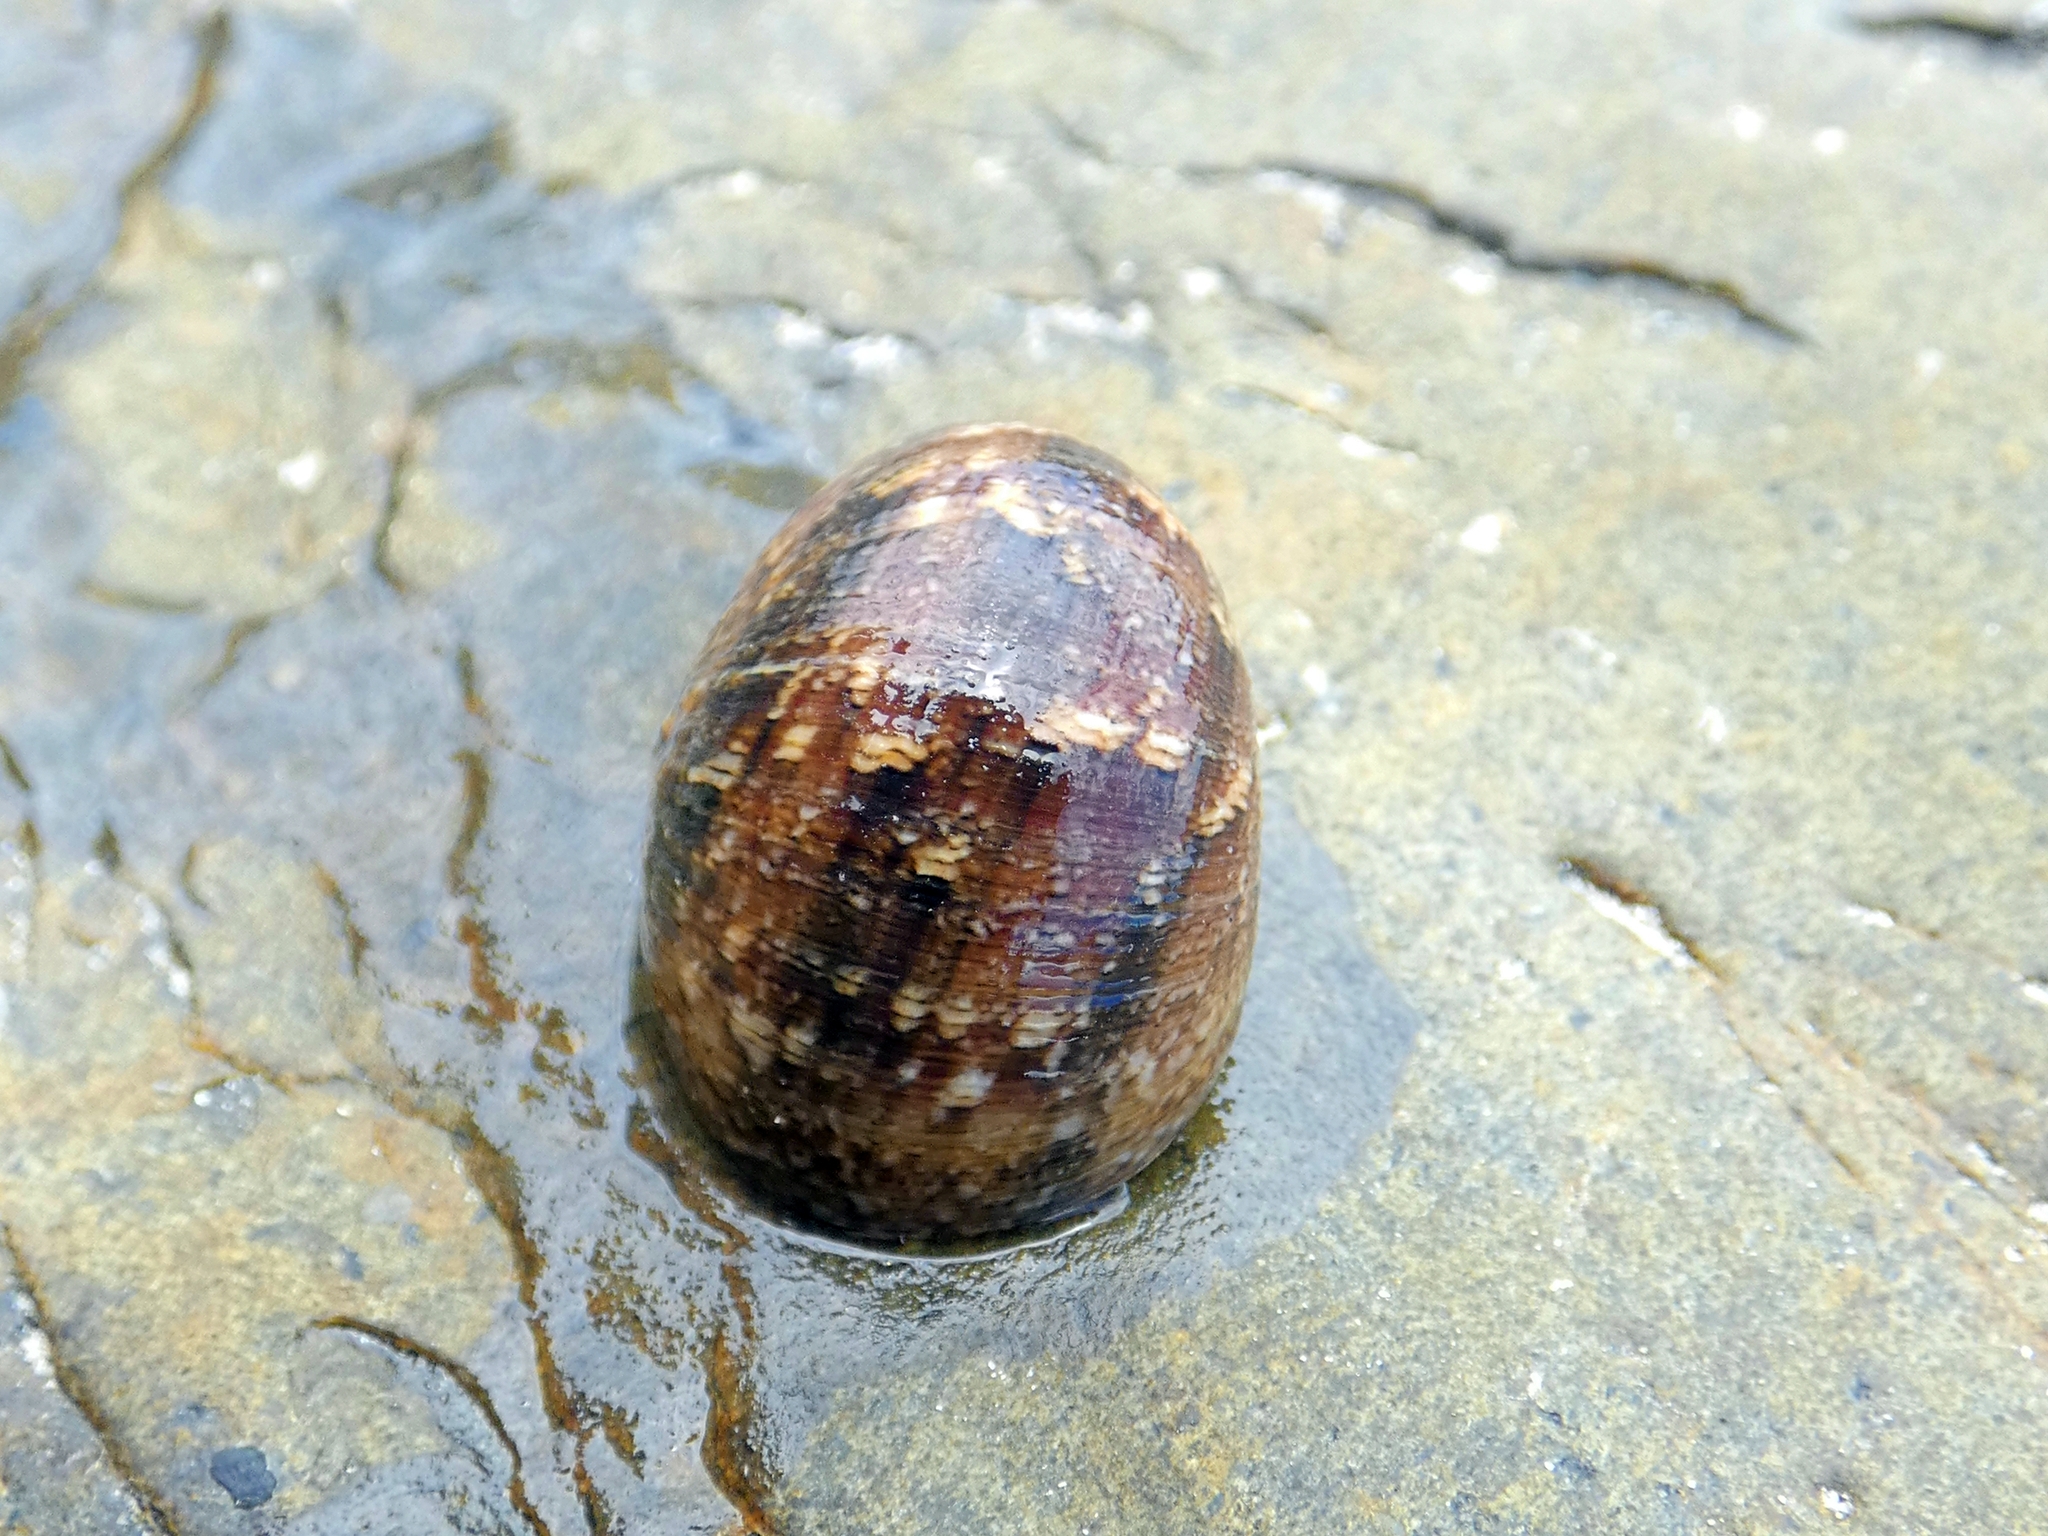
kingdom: Animalia
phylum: Mollusca
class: Gastropoda
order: Cycloneritida
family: Neritidae
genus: Nerita
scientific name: Nerita polita
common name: Polished nerite
